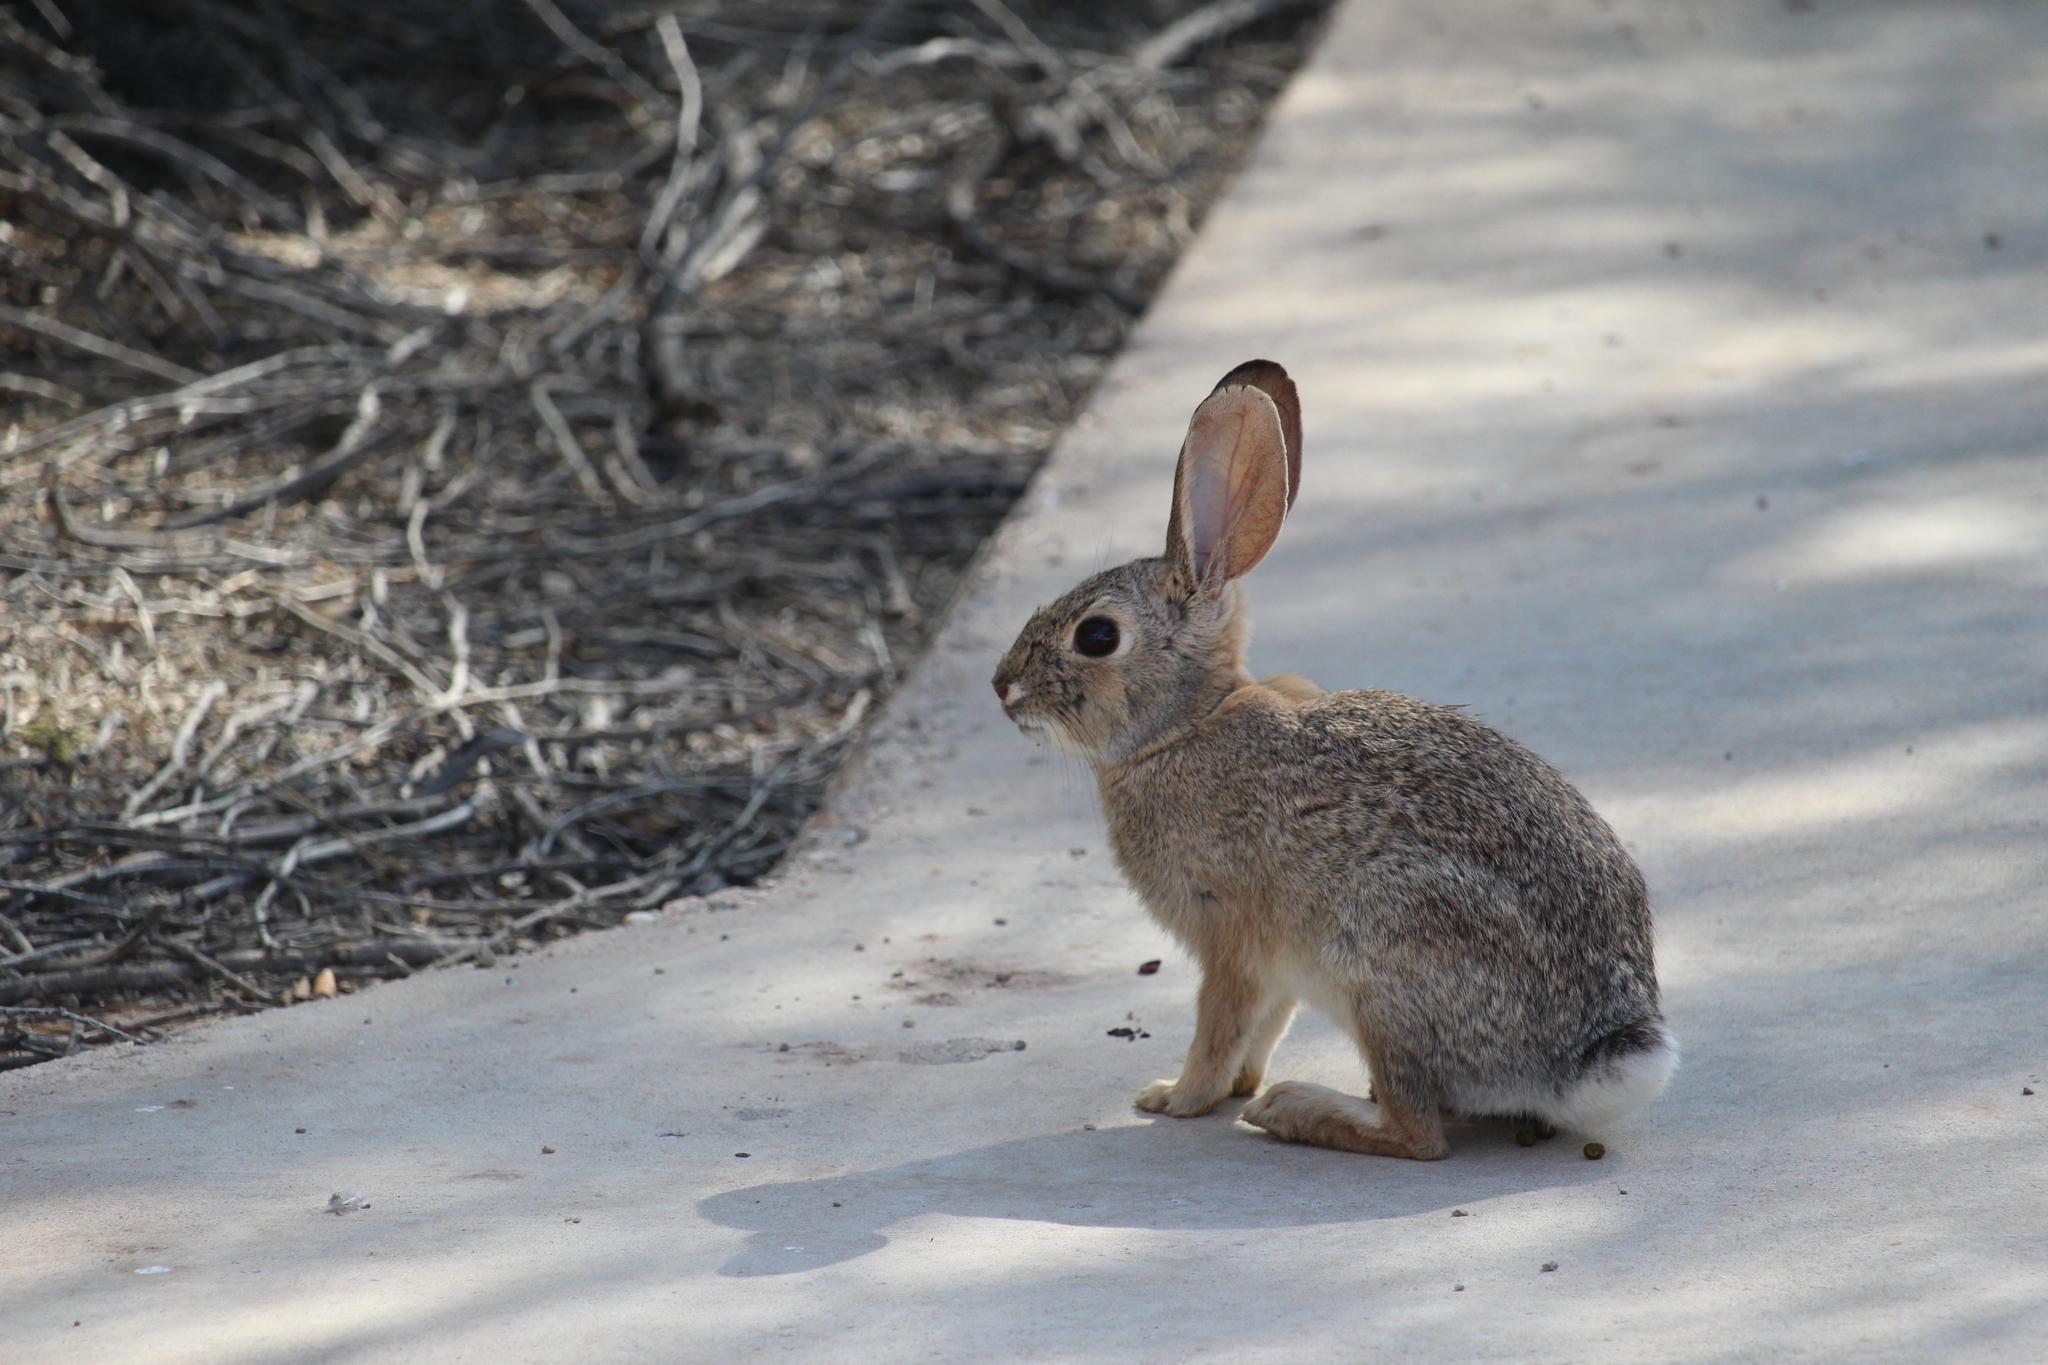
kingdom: Animalia
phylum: Chordata
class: Mammalia
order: Lagomorpha
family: Leporidae
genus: Sylvilagus
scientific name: Sylvilagus audubonii
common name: Desert cottontail
